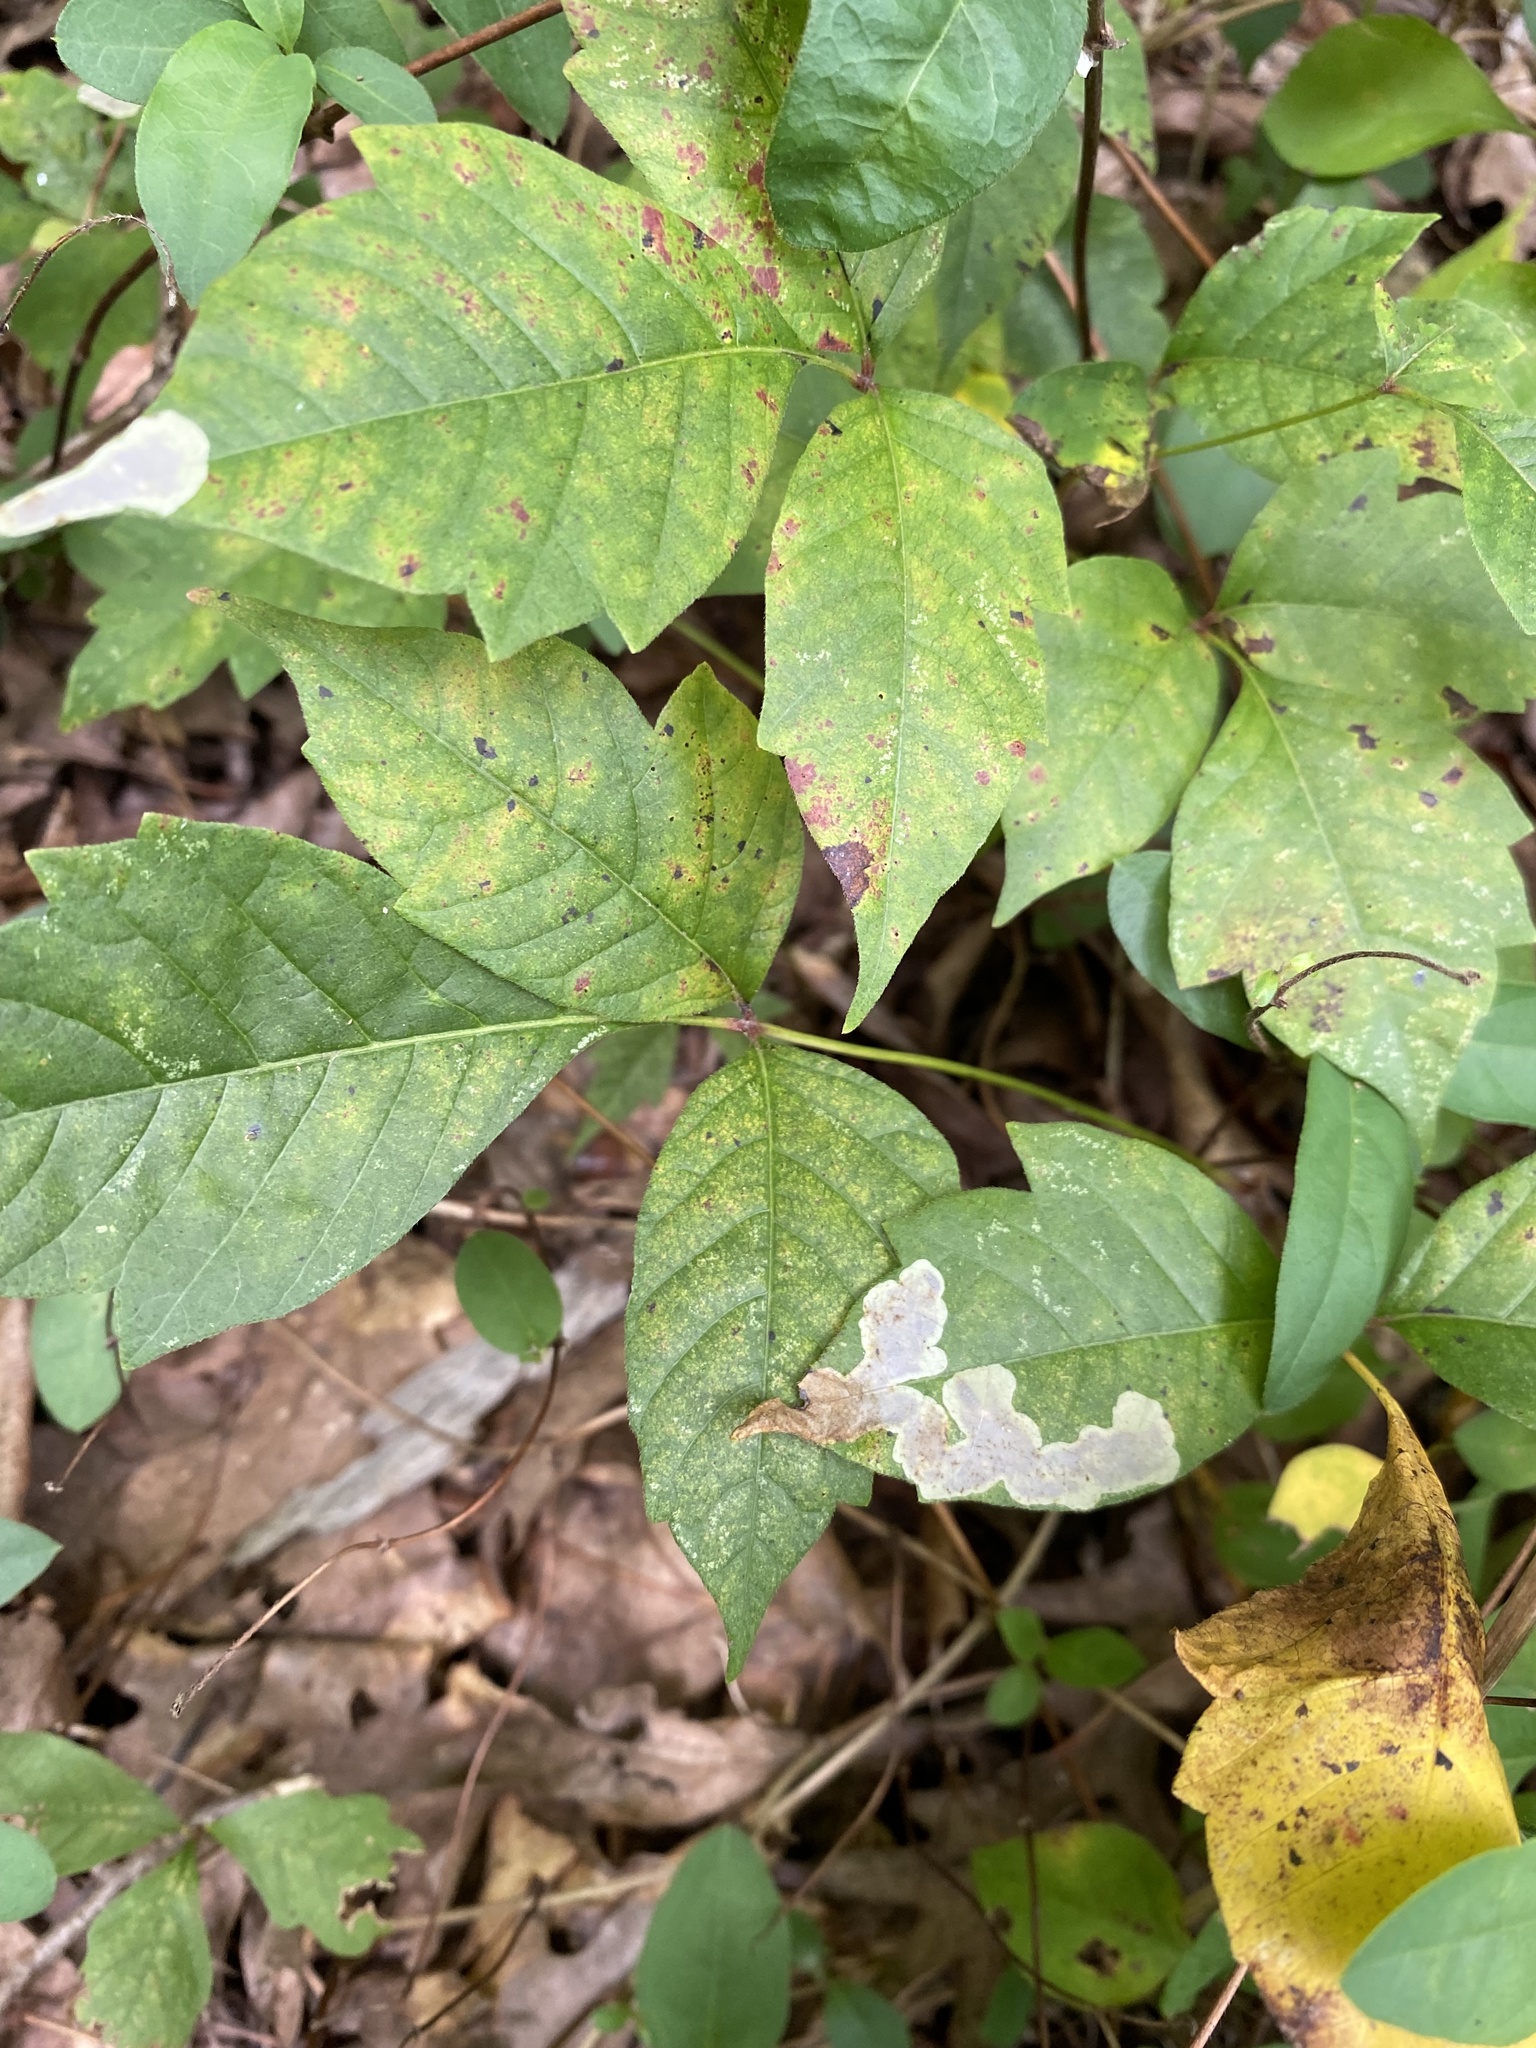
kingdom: Animalia
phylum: Arthropoda
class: Insecta
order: Lepidoptera
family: Gracillariidae
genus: Cameraria
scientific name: Cameraria guttifinitella
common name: Poison ivy leaf-miner moth
